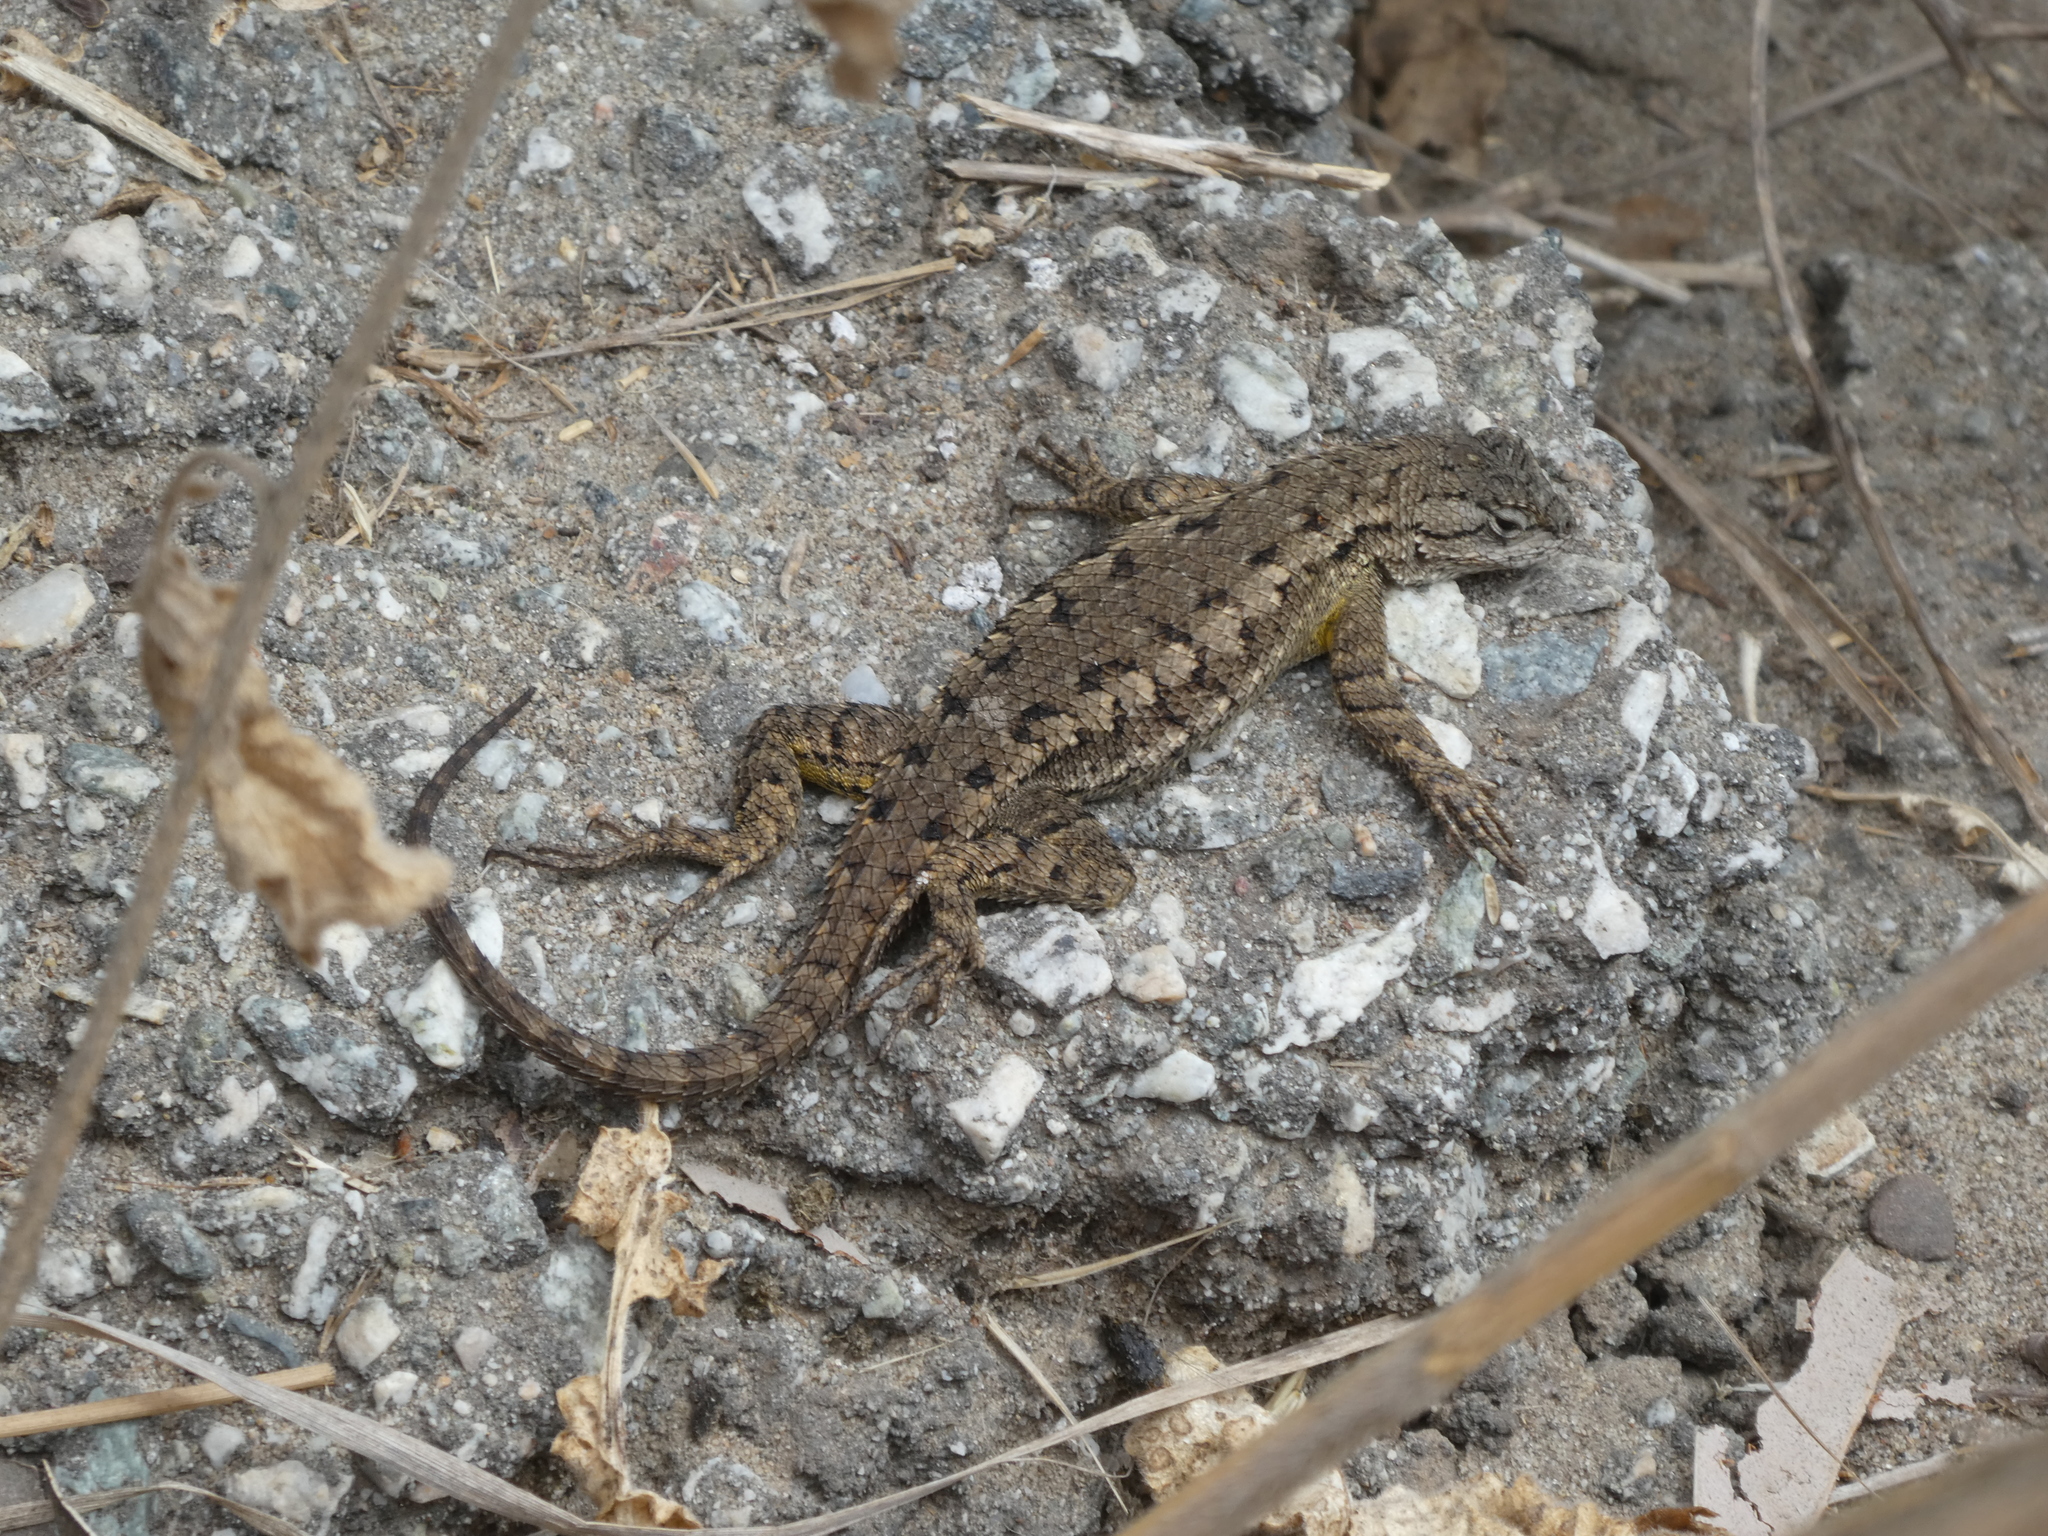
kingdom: Animalia
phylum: Chordata
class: Squamata
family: Phrynosomatidae
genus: Sceloporus
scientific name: Sceloporus occidentalis
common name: Western fence lizard
